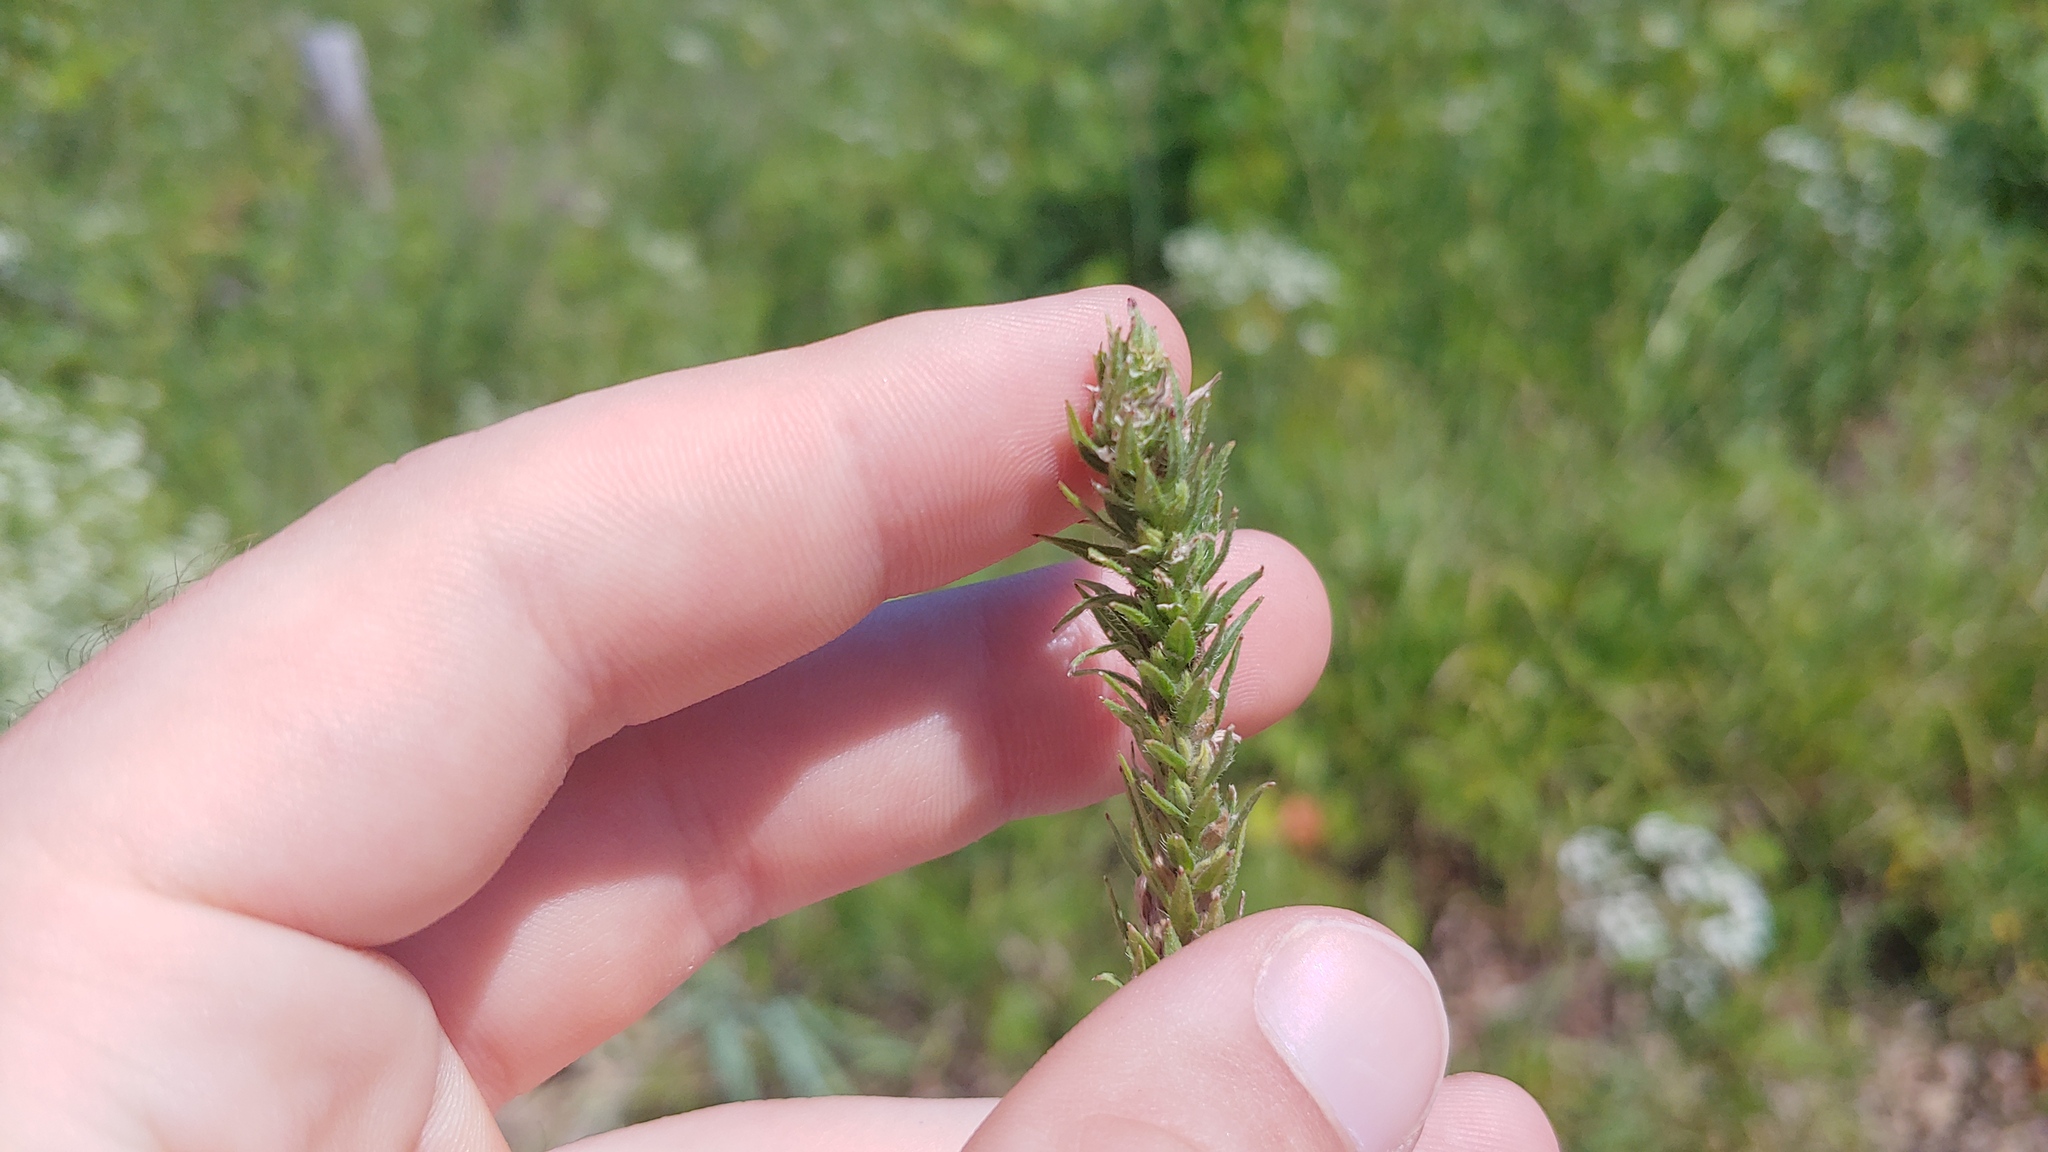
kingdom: Plantae
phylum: Tracheophyta
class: Magnoliopsida
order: Lamiales
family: Verbenaceae
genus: Verbena
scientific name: Verbena bracteata
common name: Bracted vervain
